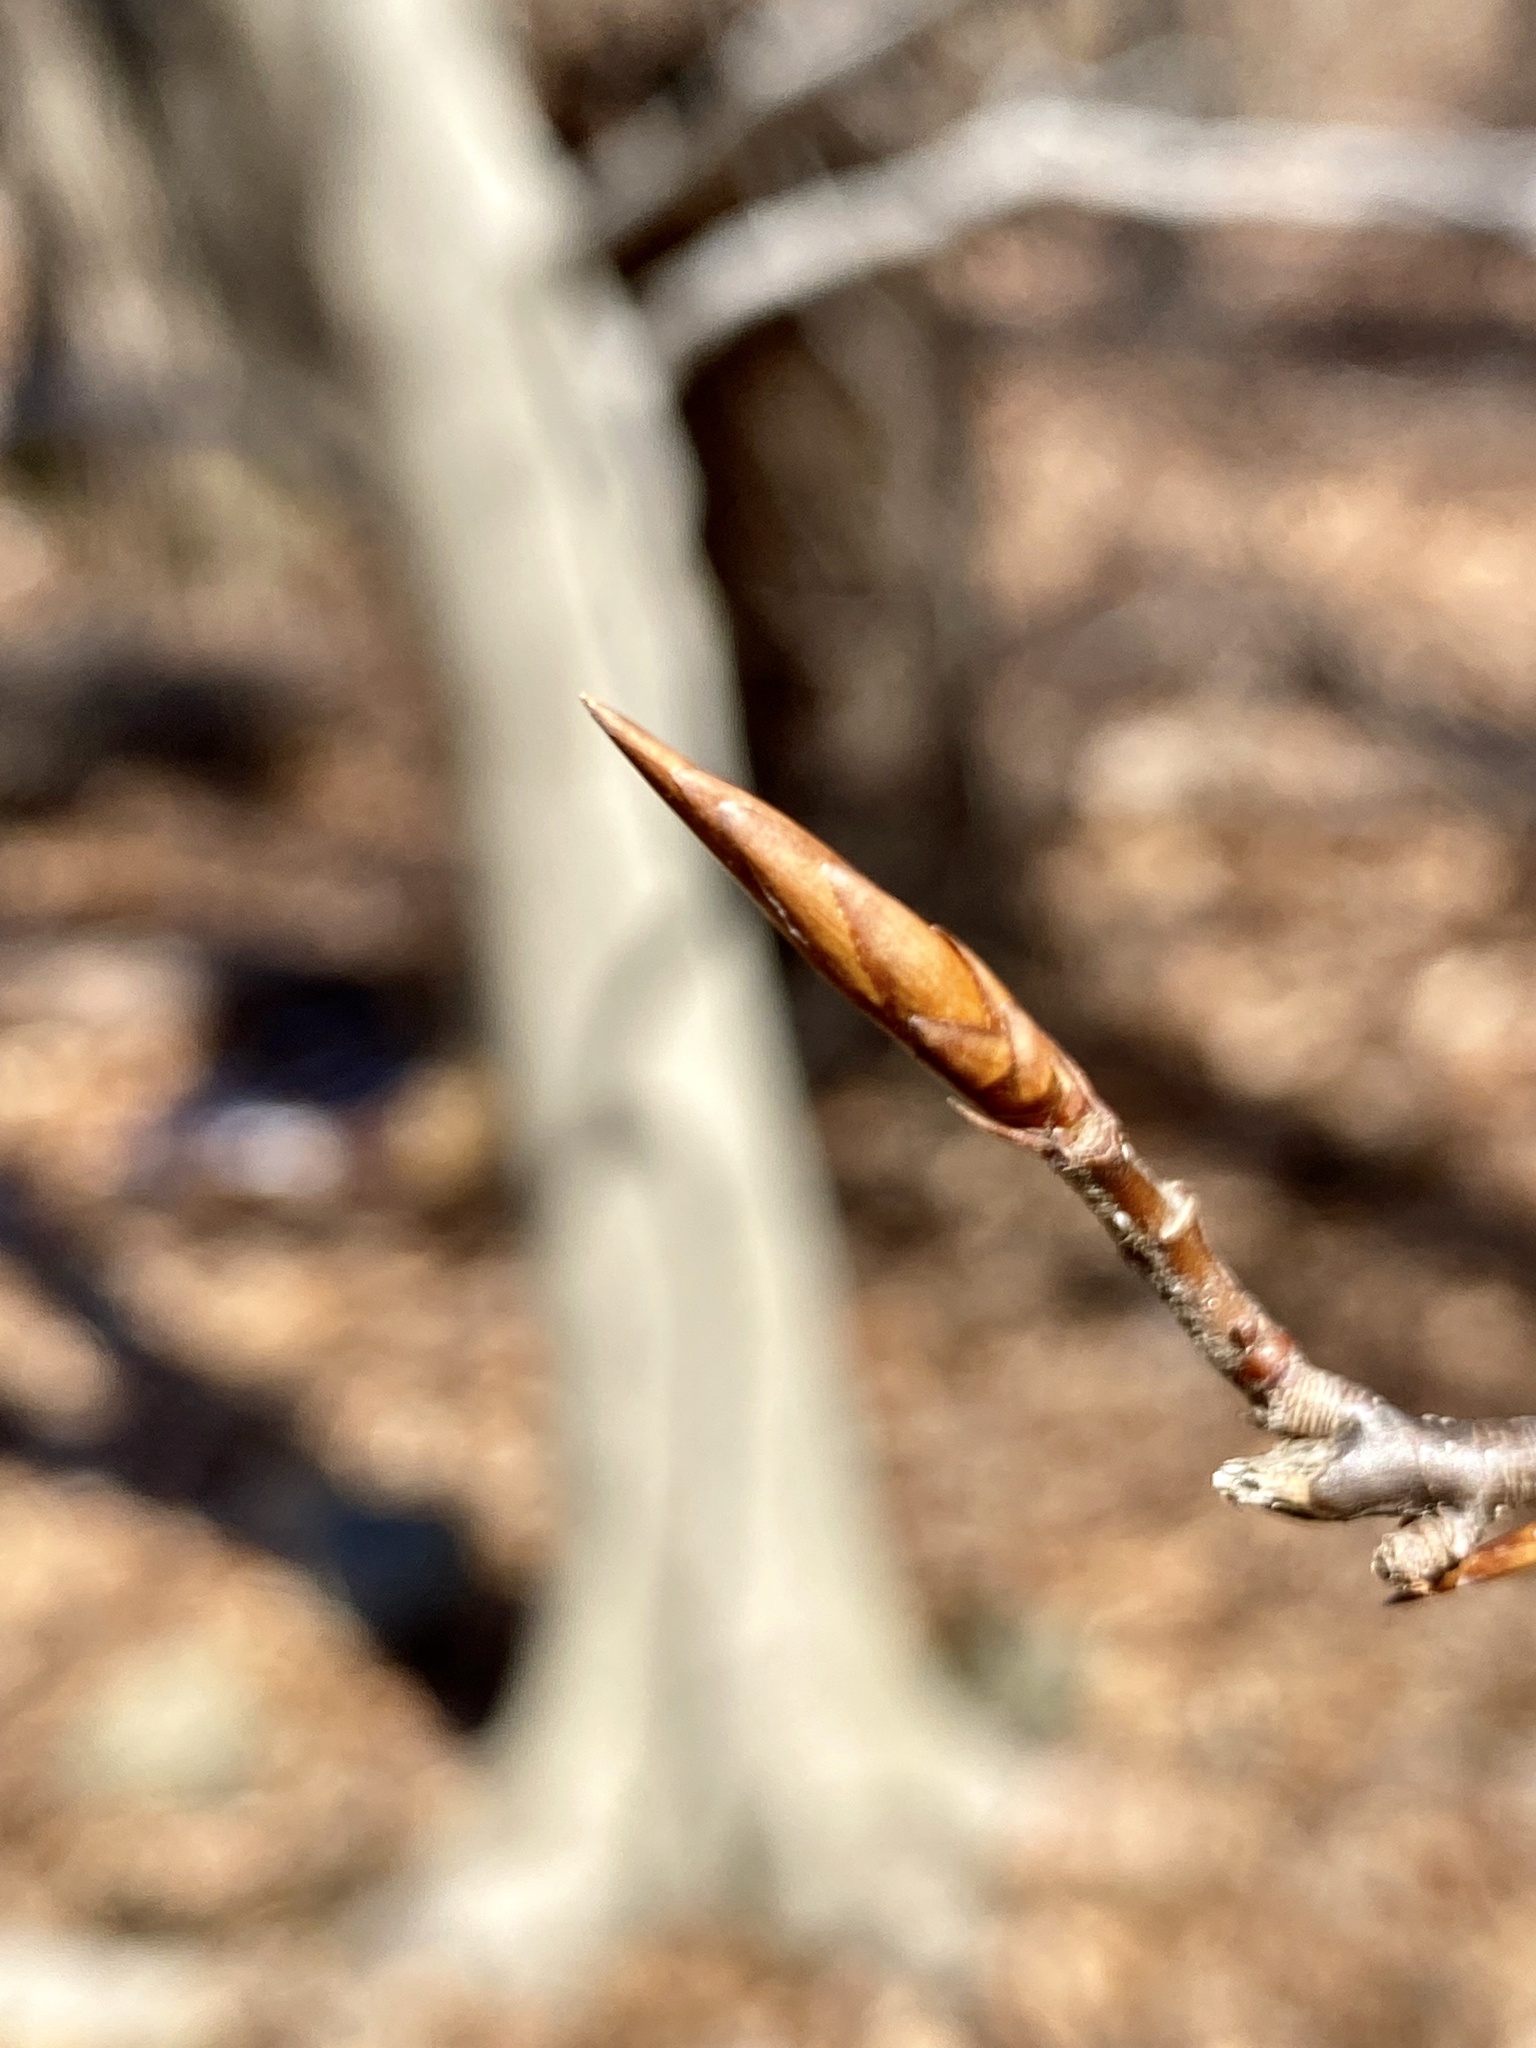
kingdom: Plantae
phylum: Tracheophyta
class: Magnoliopsida
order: Fagales
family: Fagaceae
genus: Fagus
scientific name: Fagus grandifolia
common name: American beech
